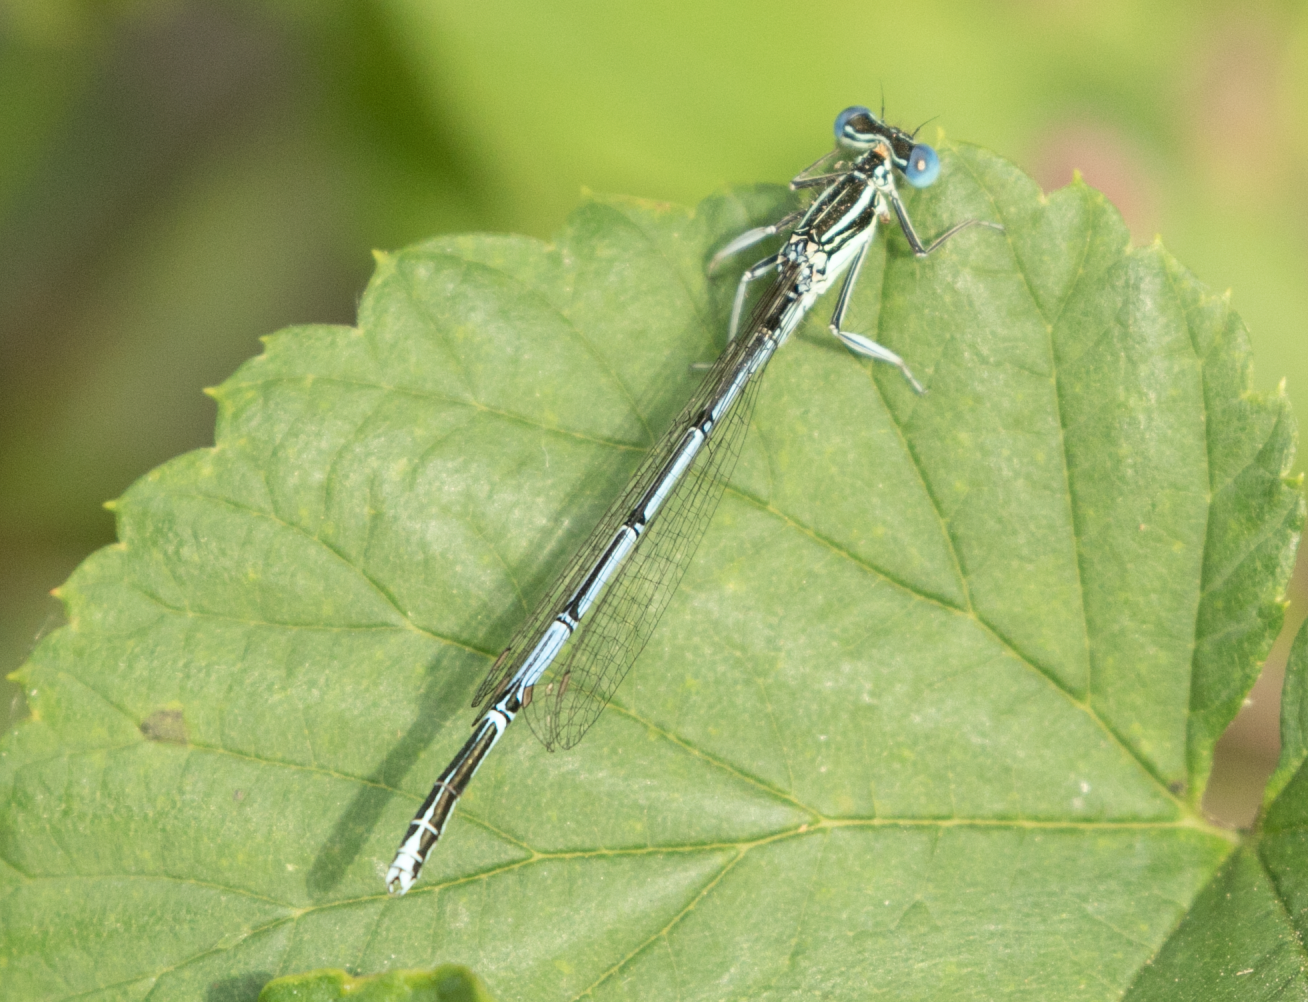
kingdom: Animalia
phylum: Arthropoda
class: Insecta
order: Odonata
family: Platycnemididae
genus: Platycnemis
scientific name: Platycnemis pennipes
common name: White-legged damselfly
